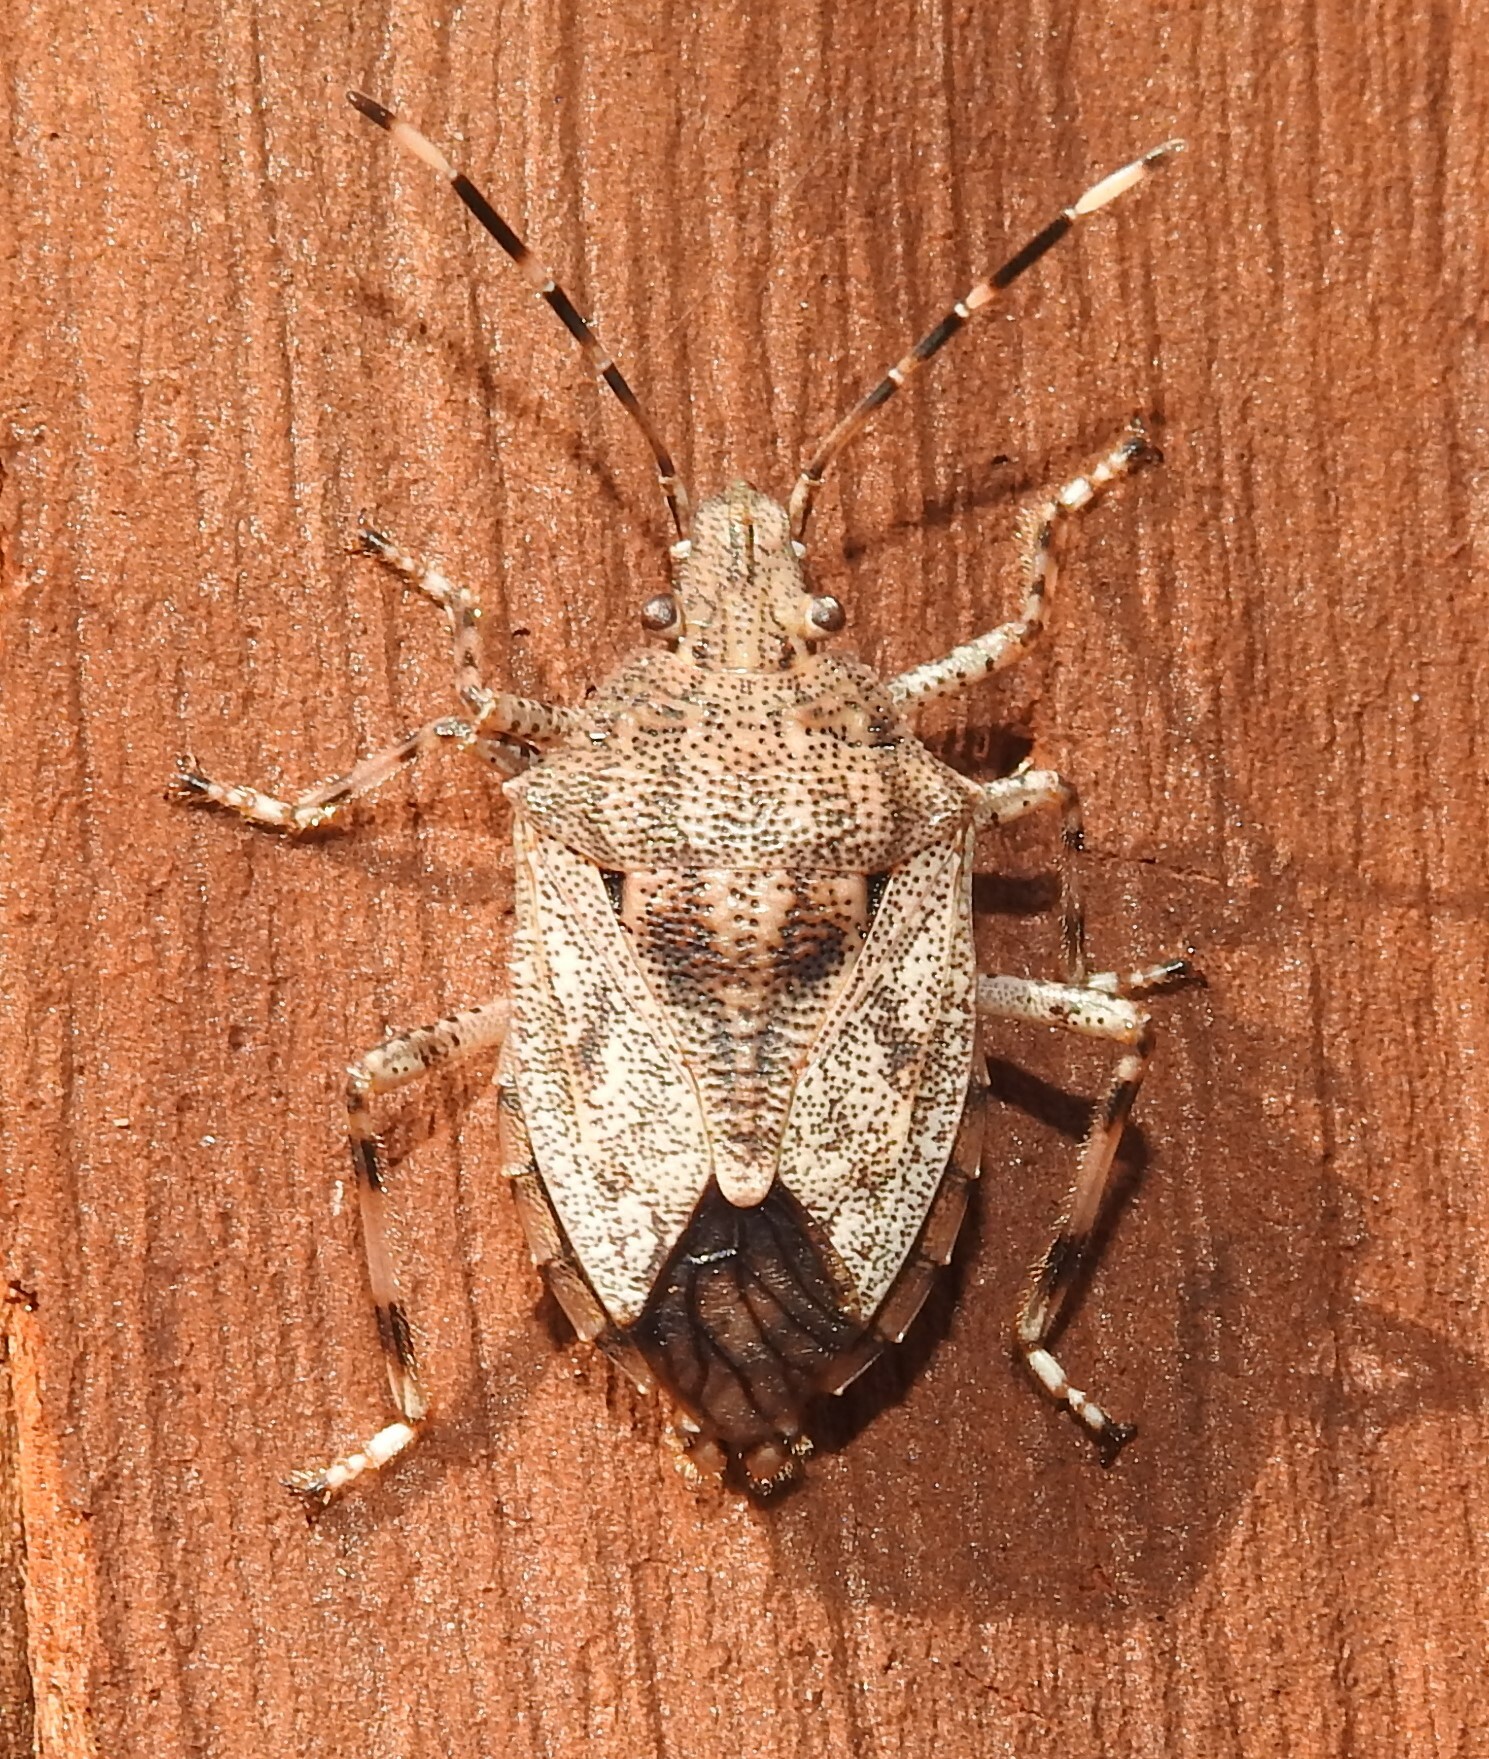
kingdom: Animalia
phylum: Arthropoda
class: Insecta
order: Hemiptera
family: Pentatomidae
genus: Anchises
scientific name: Anchises
